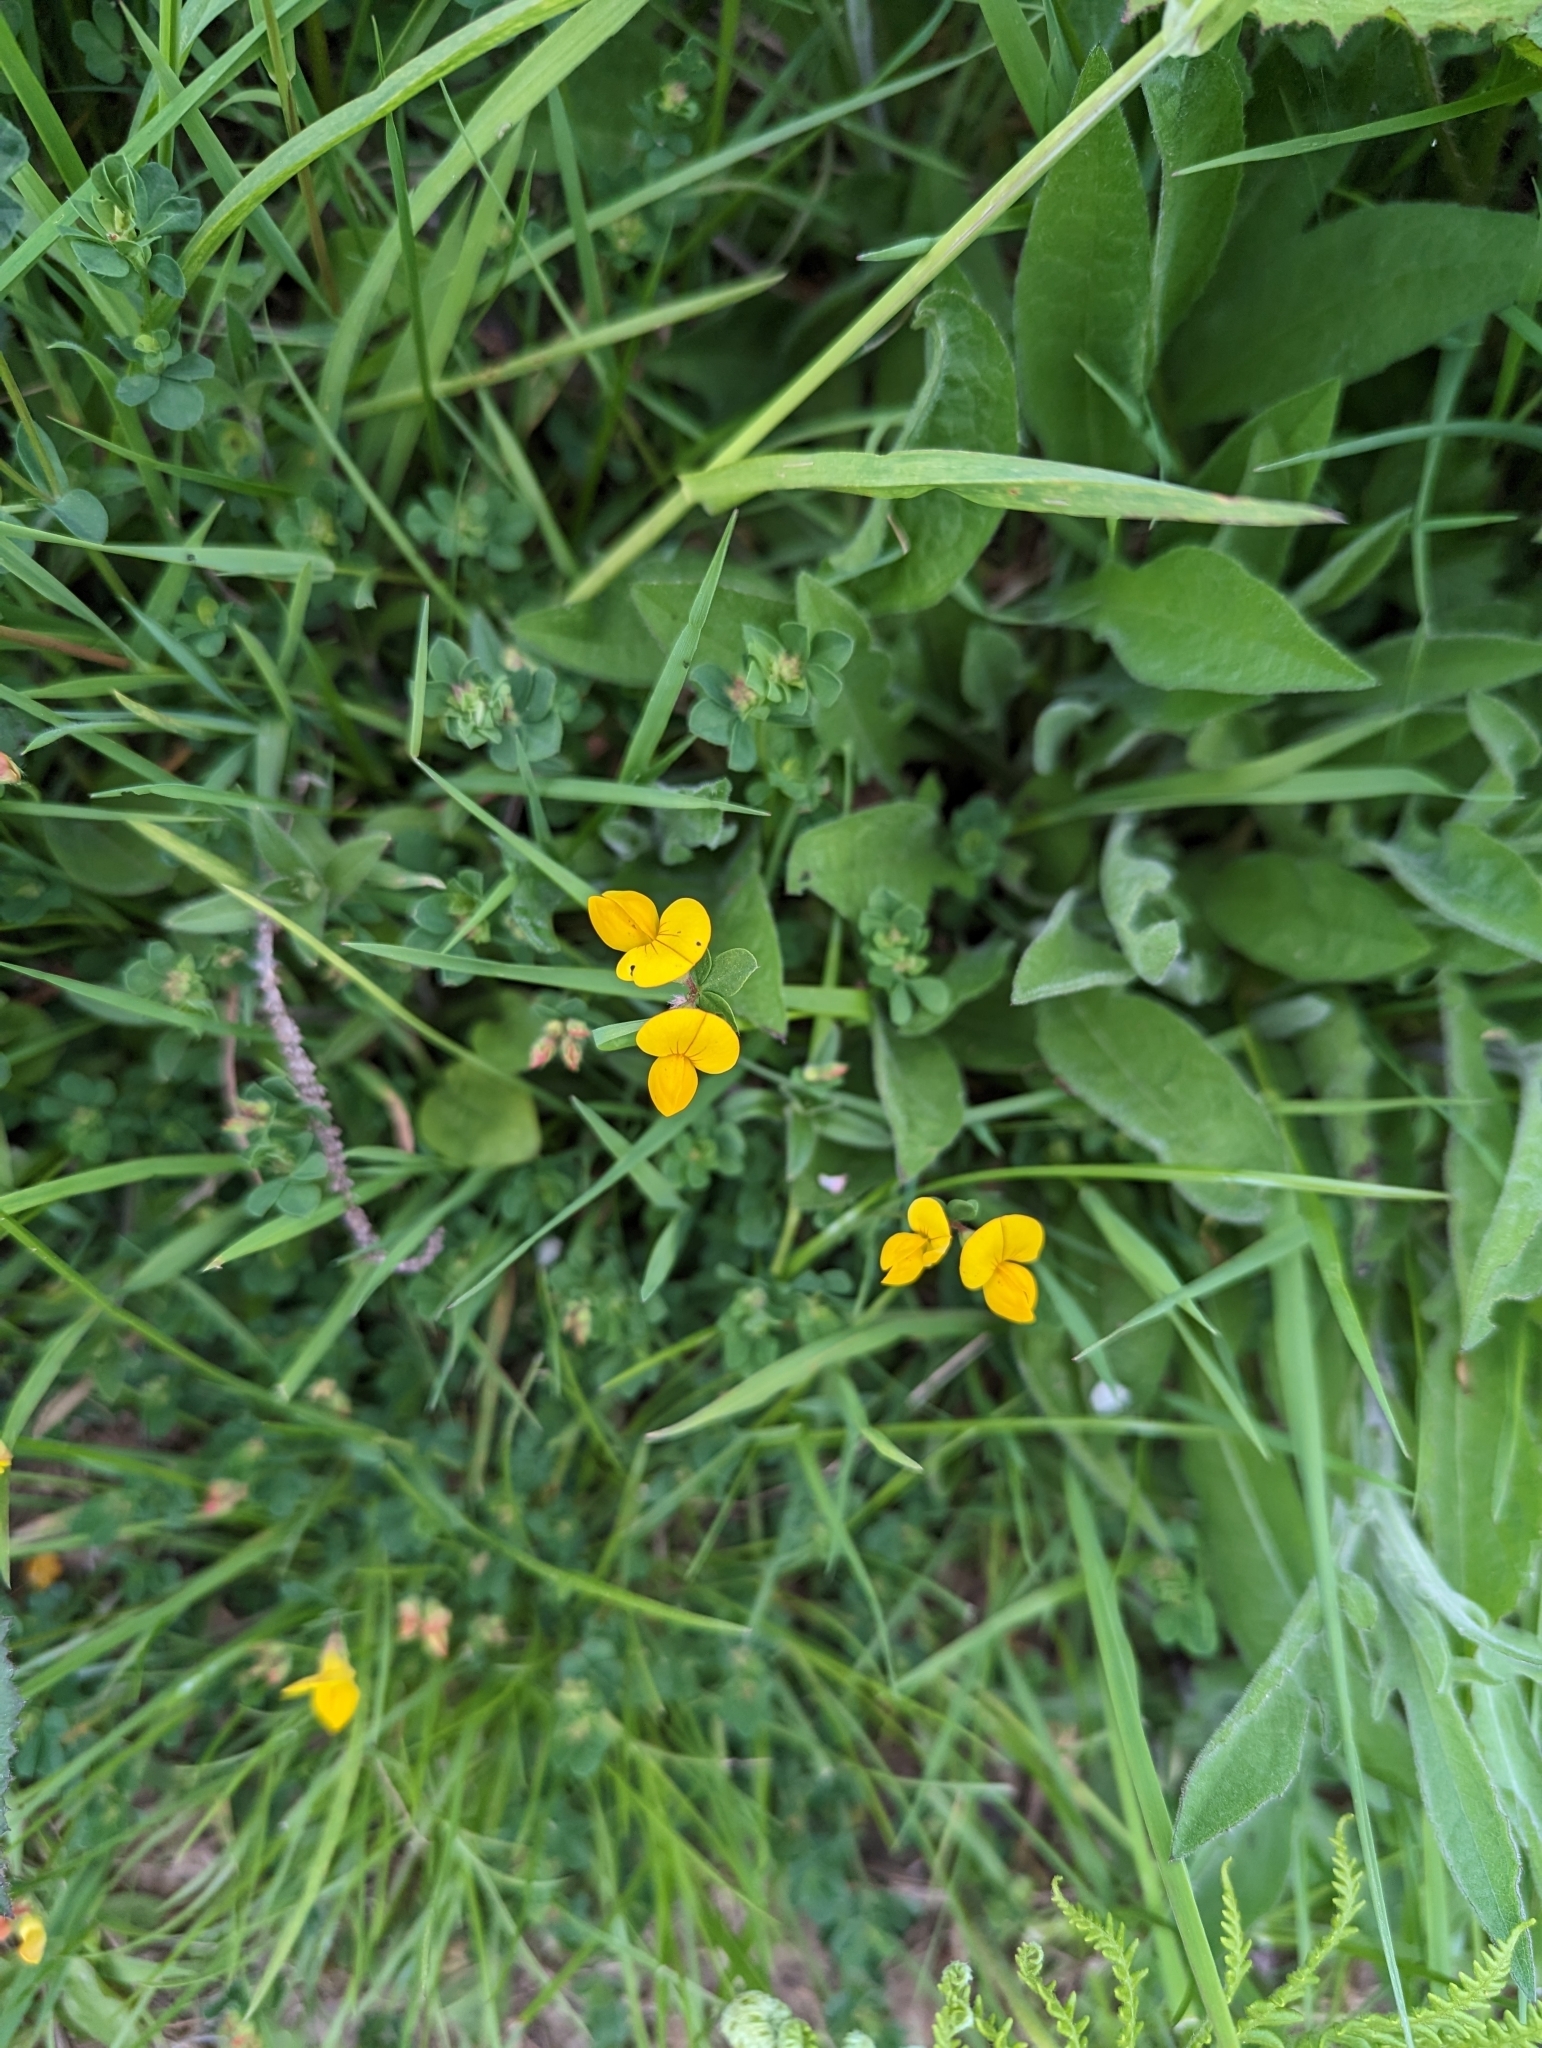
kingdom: Plantae
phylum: Tracheophyta
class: Magnoliopsida
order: Fabales
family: Fabaceae
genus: Lotus
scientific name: Lotus corniculatus
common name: Common bird's-foot-trefoil
